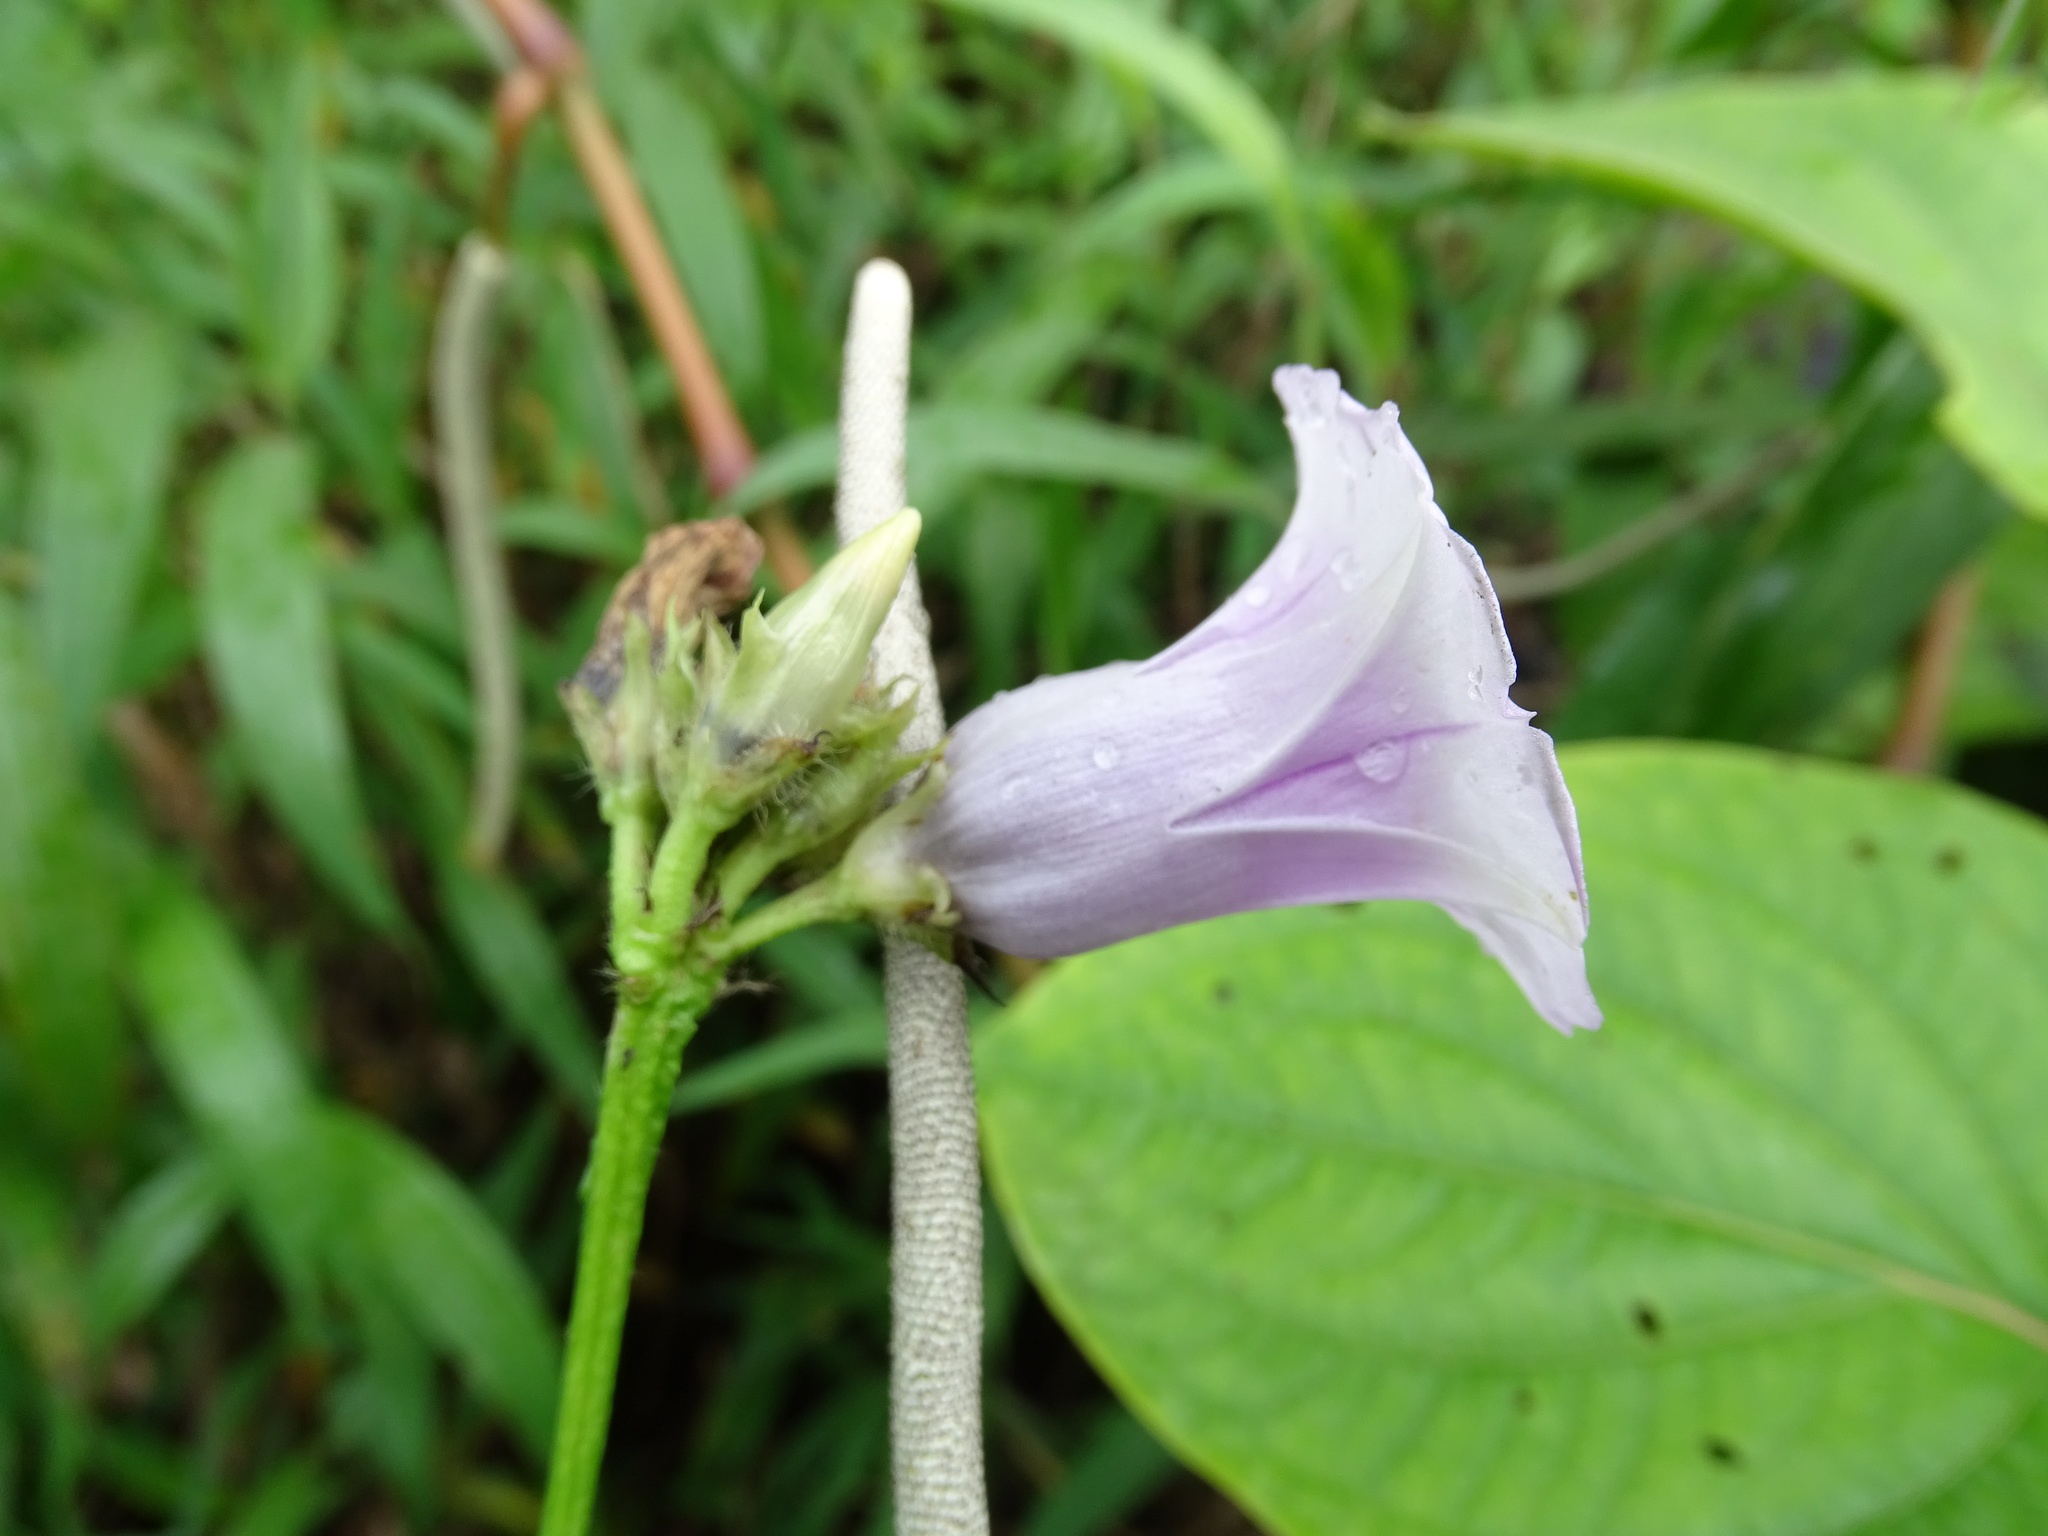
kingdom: Plantae
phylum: Tracheophyta
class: Magnoliopsida
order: Solanales
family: Convolvulaceae
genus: Ipomoea
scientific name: Ipomoea batatas
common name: Sweet-potato
